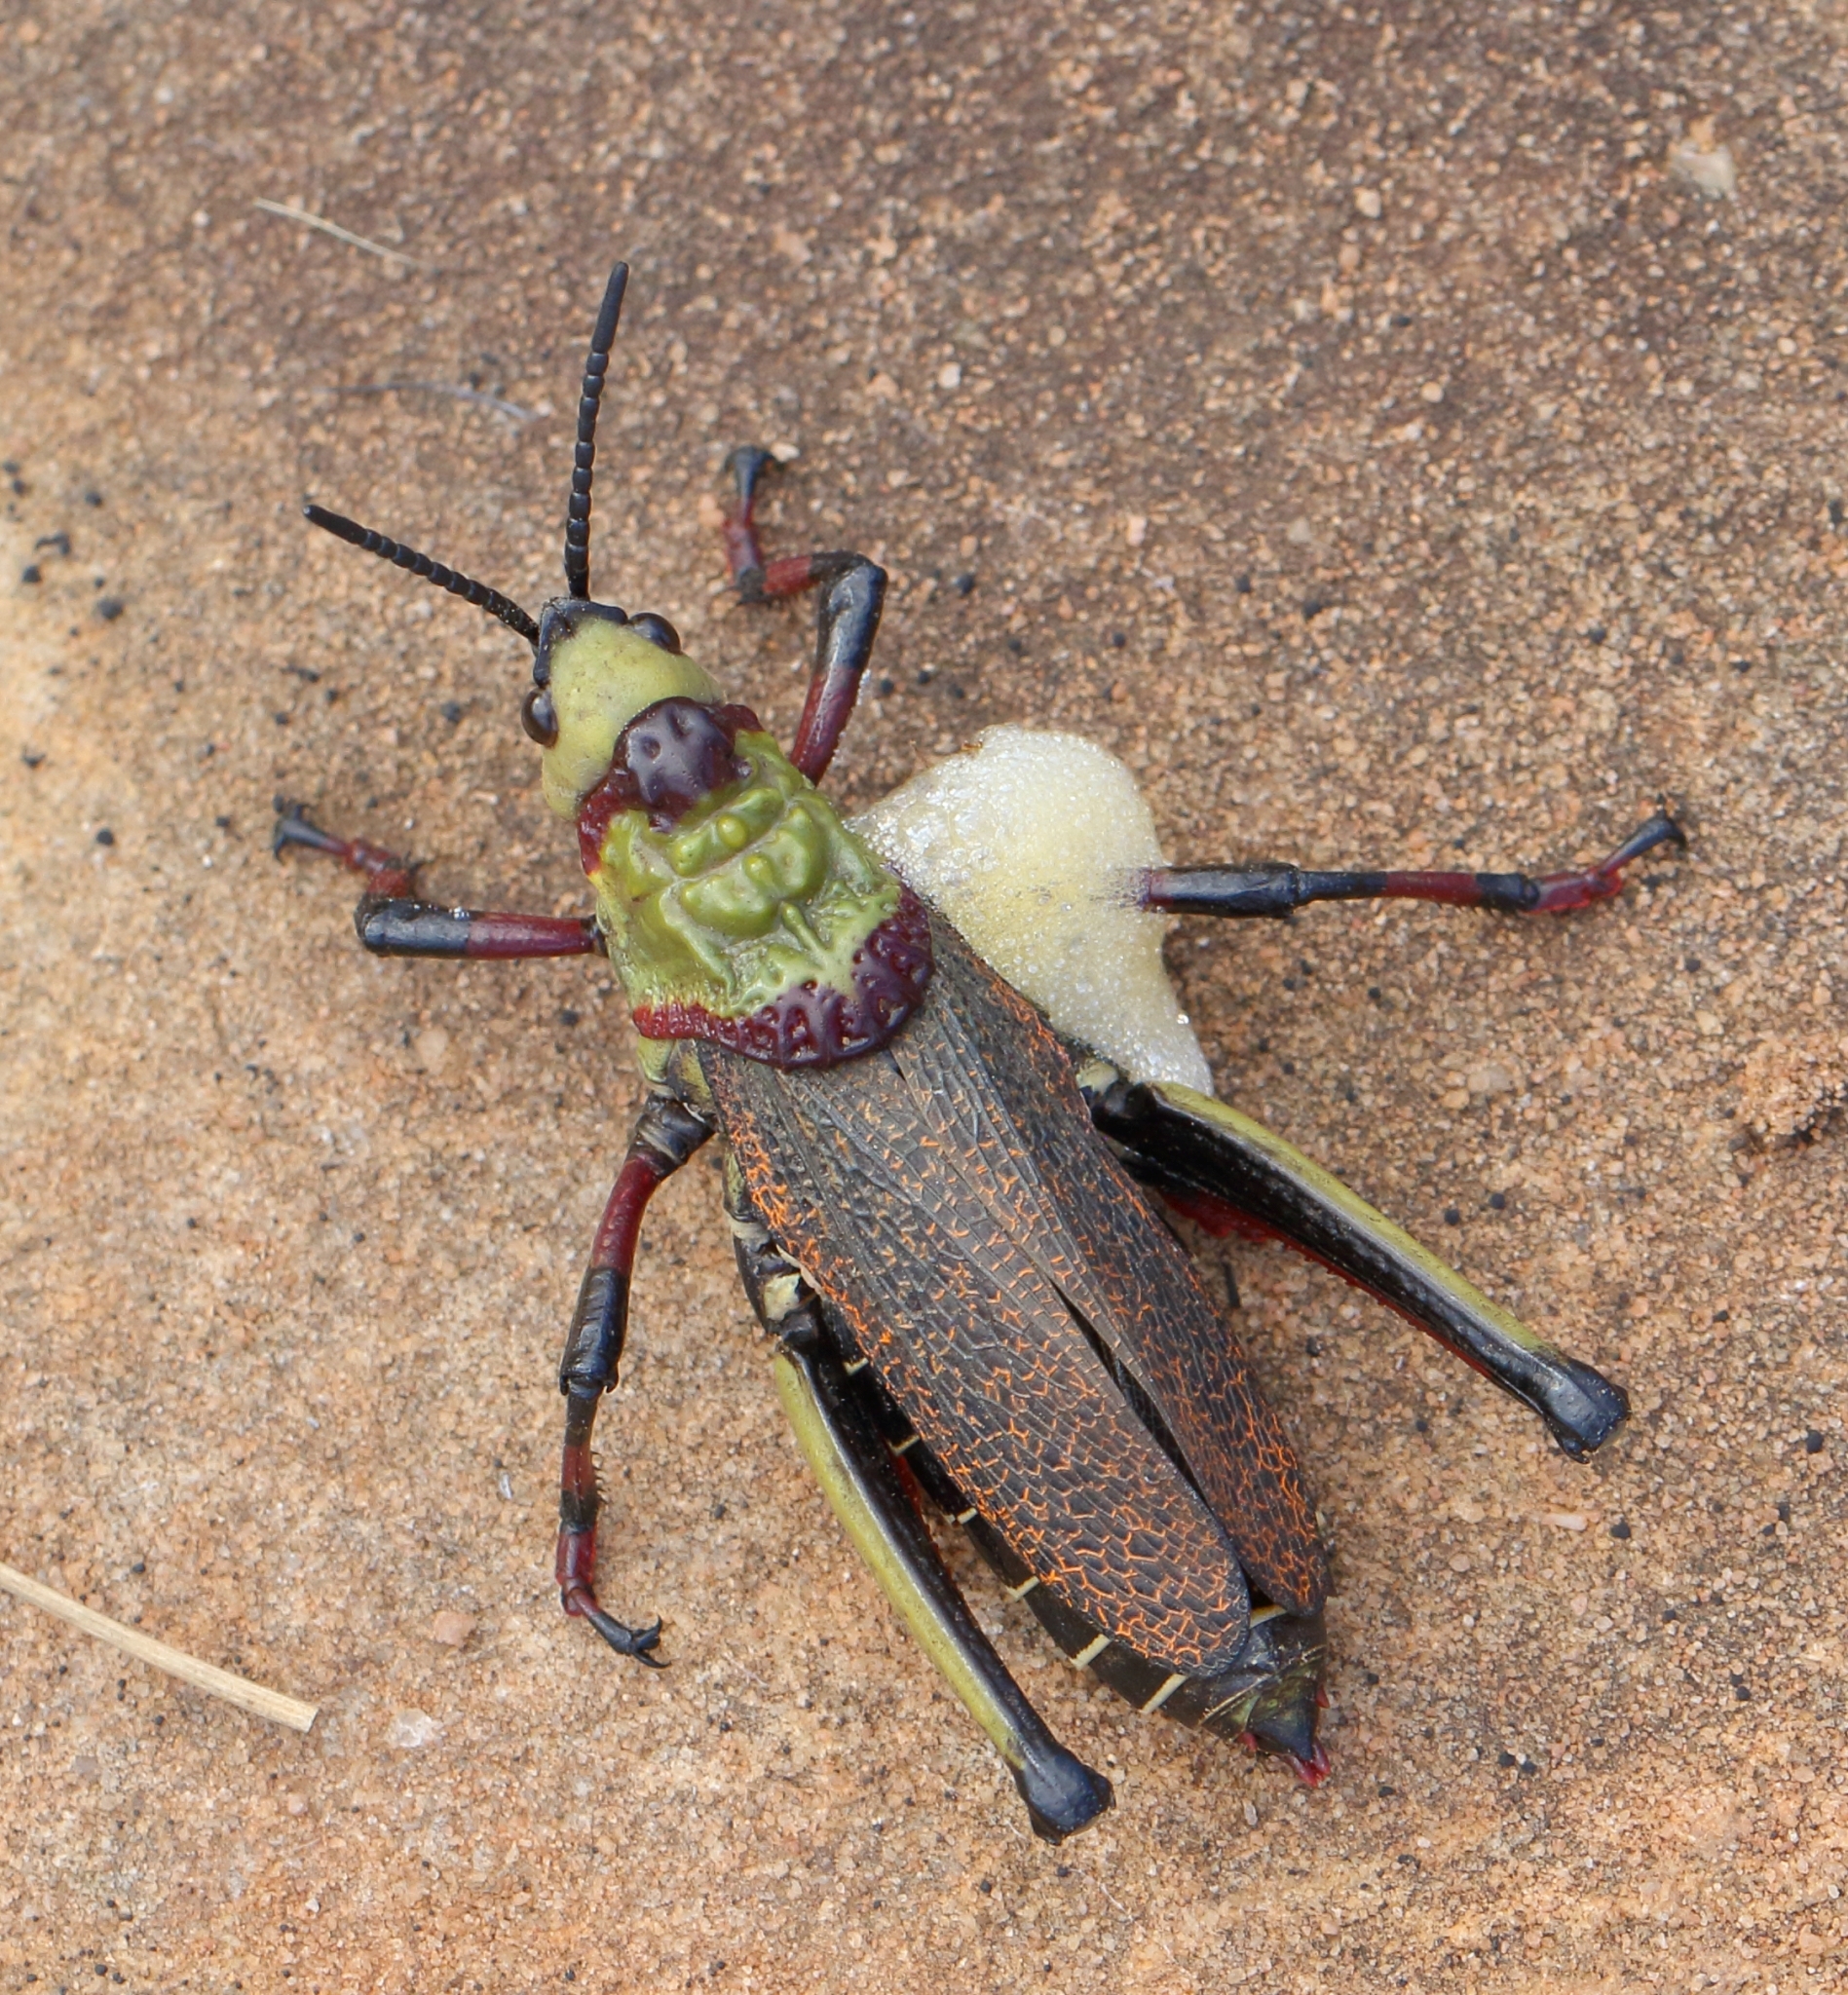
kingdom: Animalia
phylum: Arthropoda
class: Insecta
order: Orthoptera
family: Pyrgomorphidae
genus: Dictyophorus
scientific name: Dictyophorus spumans
